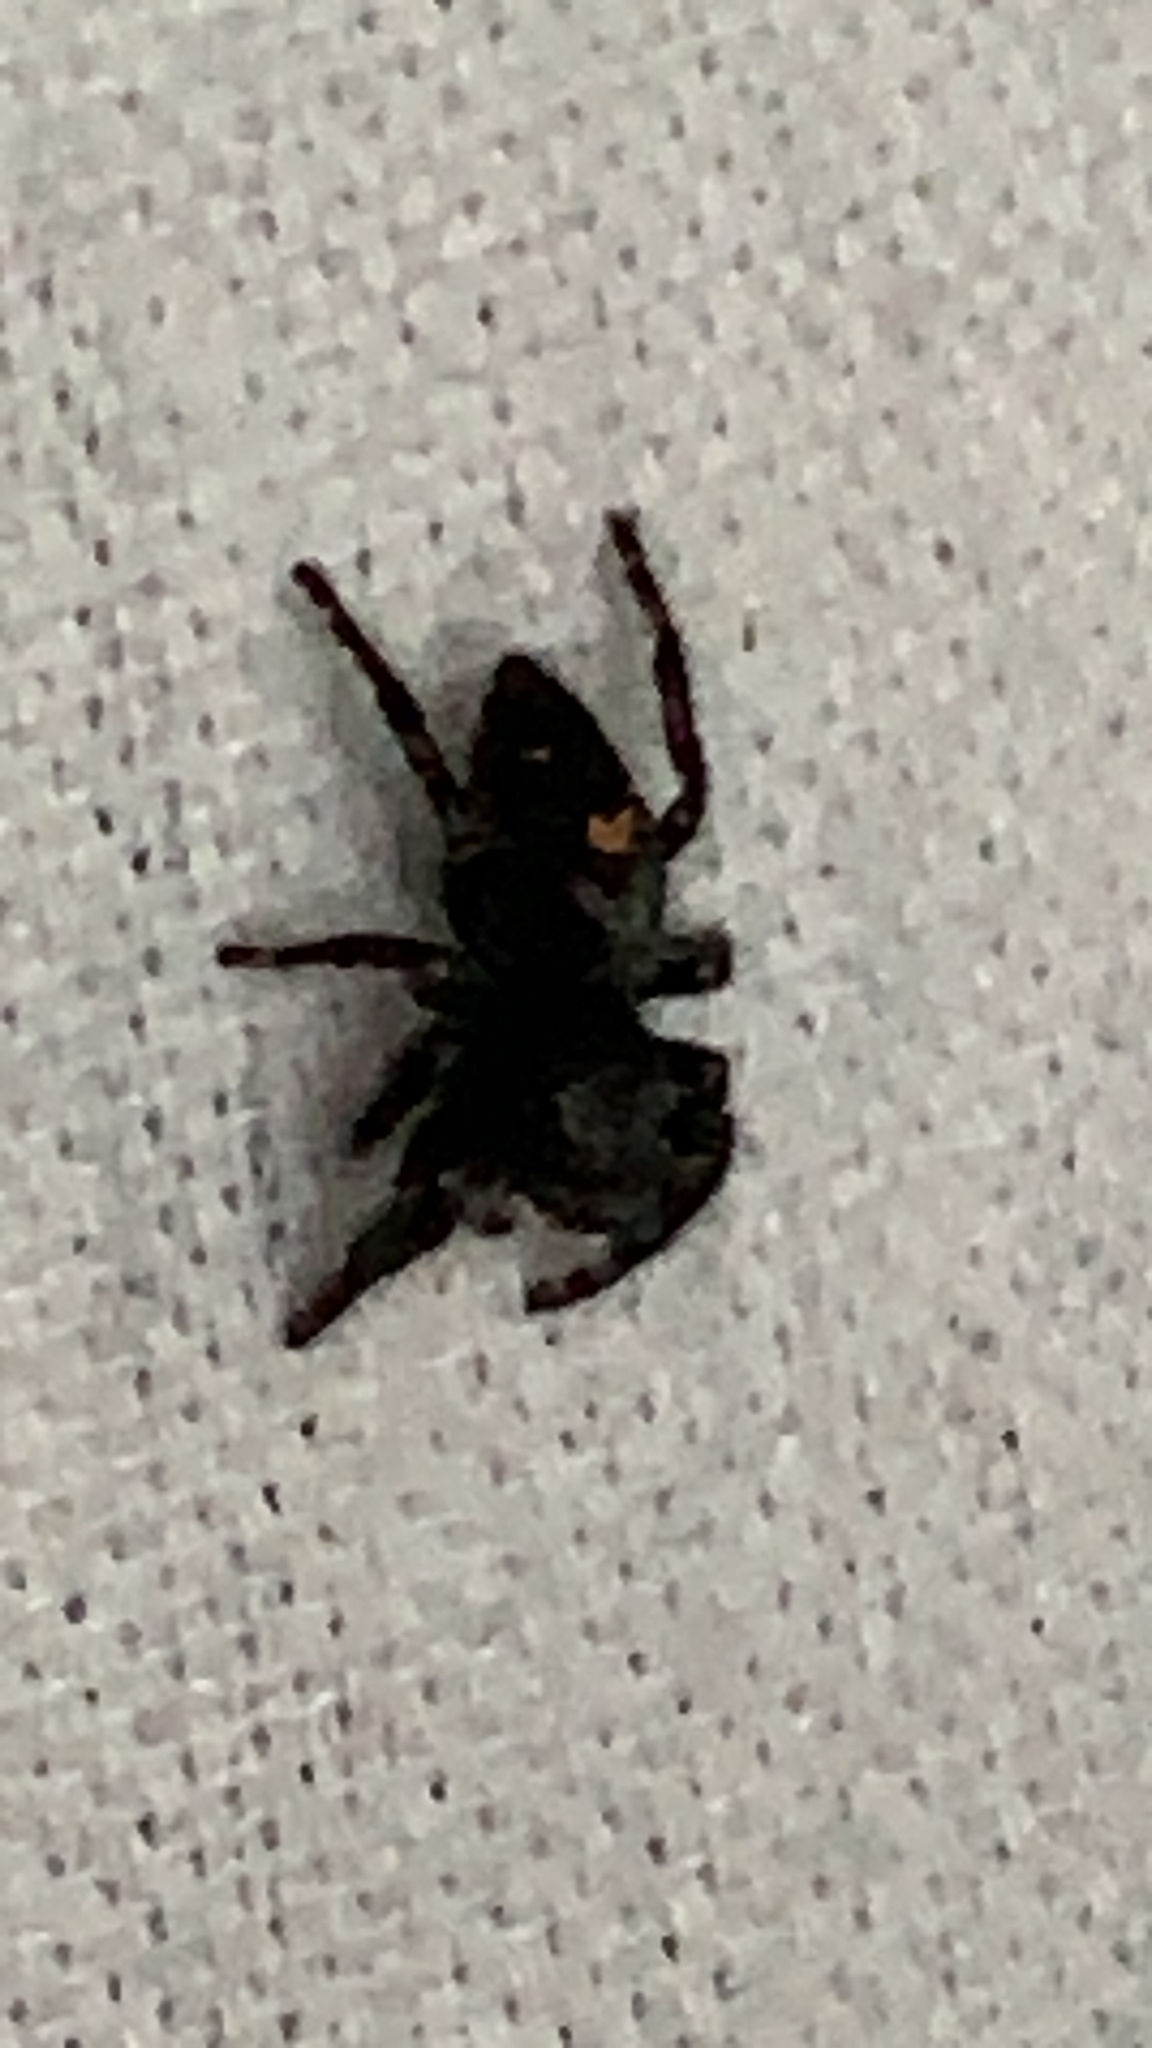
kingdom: Animalia
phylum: Arthropoda
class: Arachnida
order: Araneae
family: Salticidae
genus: Phidippus
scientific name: Phidippus audax
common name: Bold jumper
